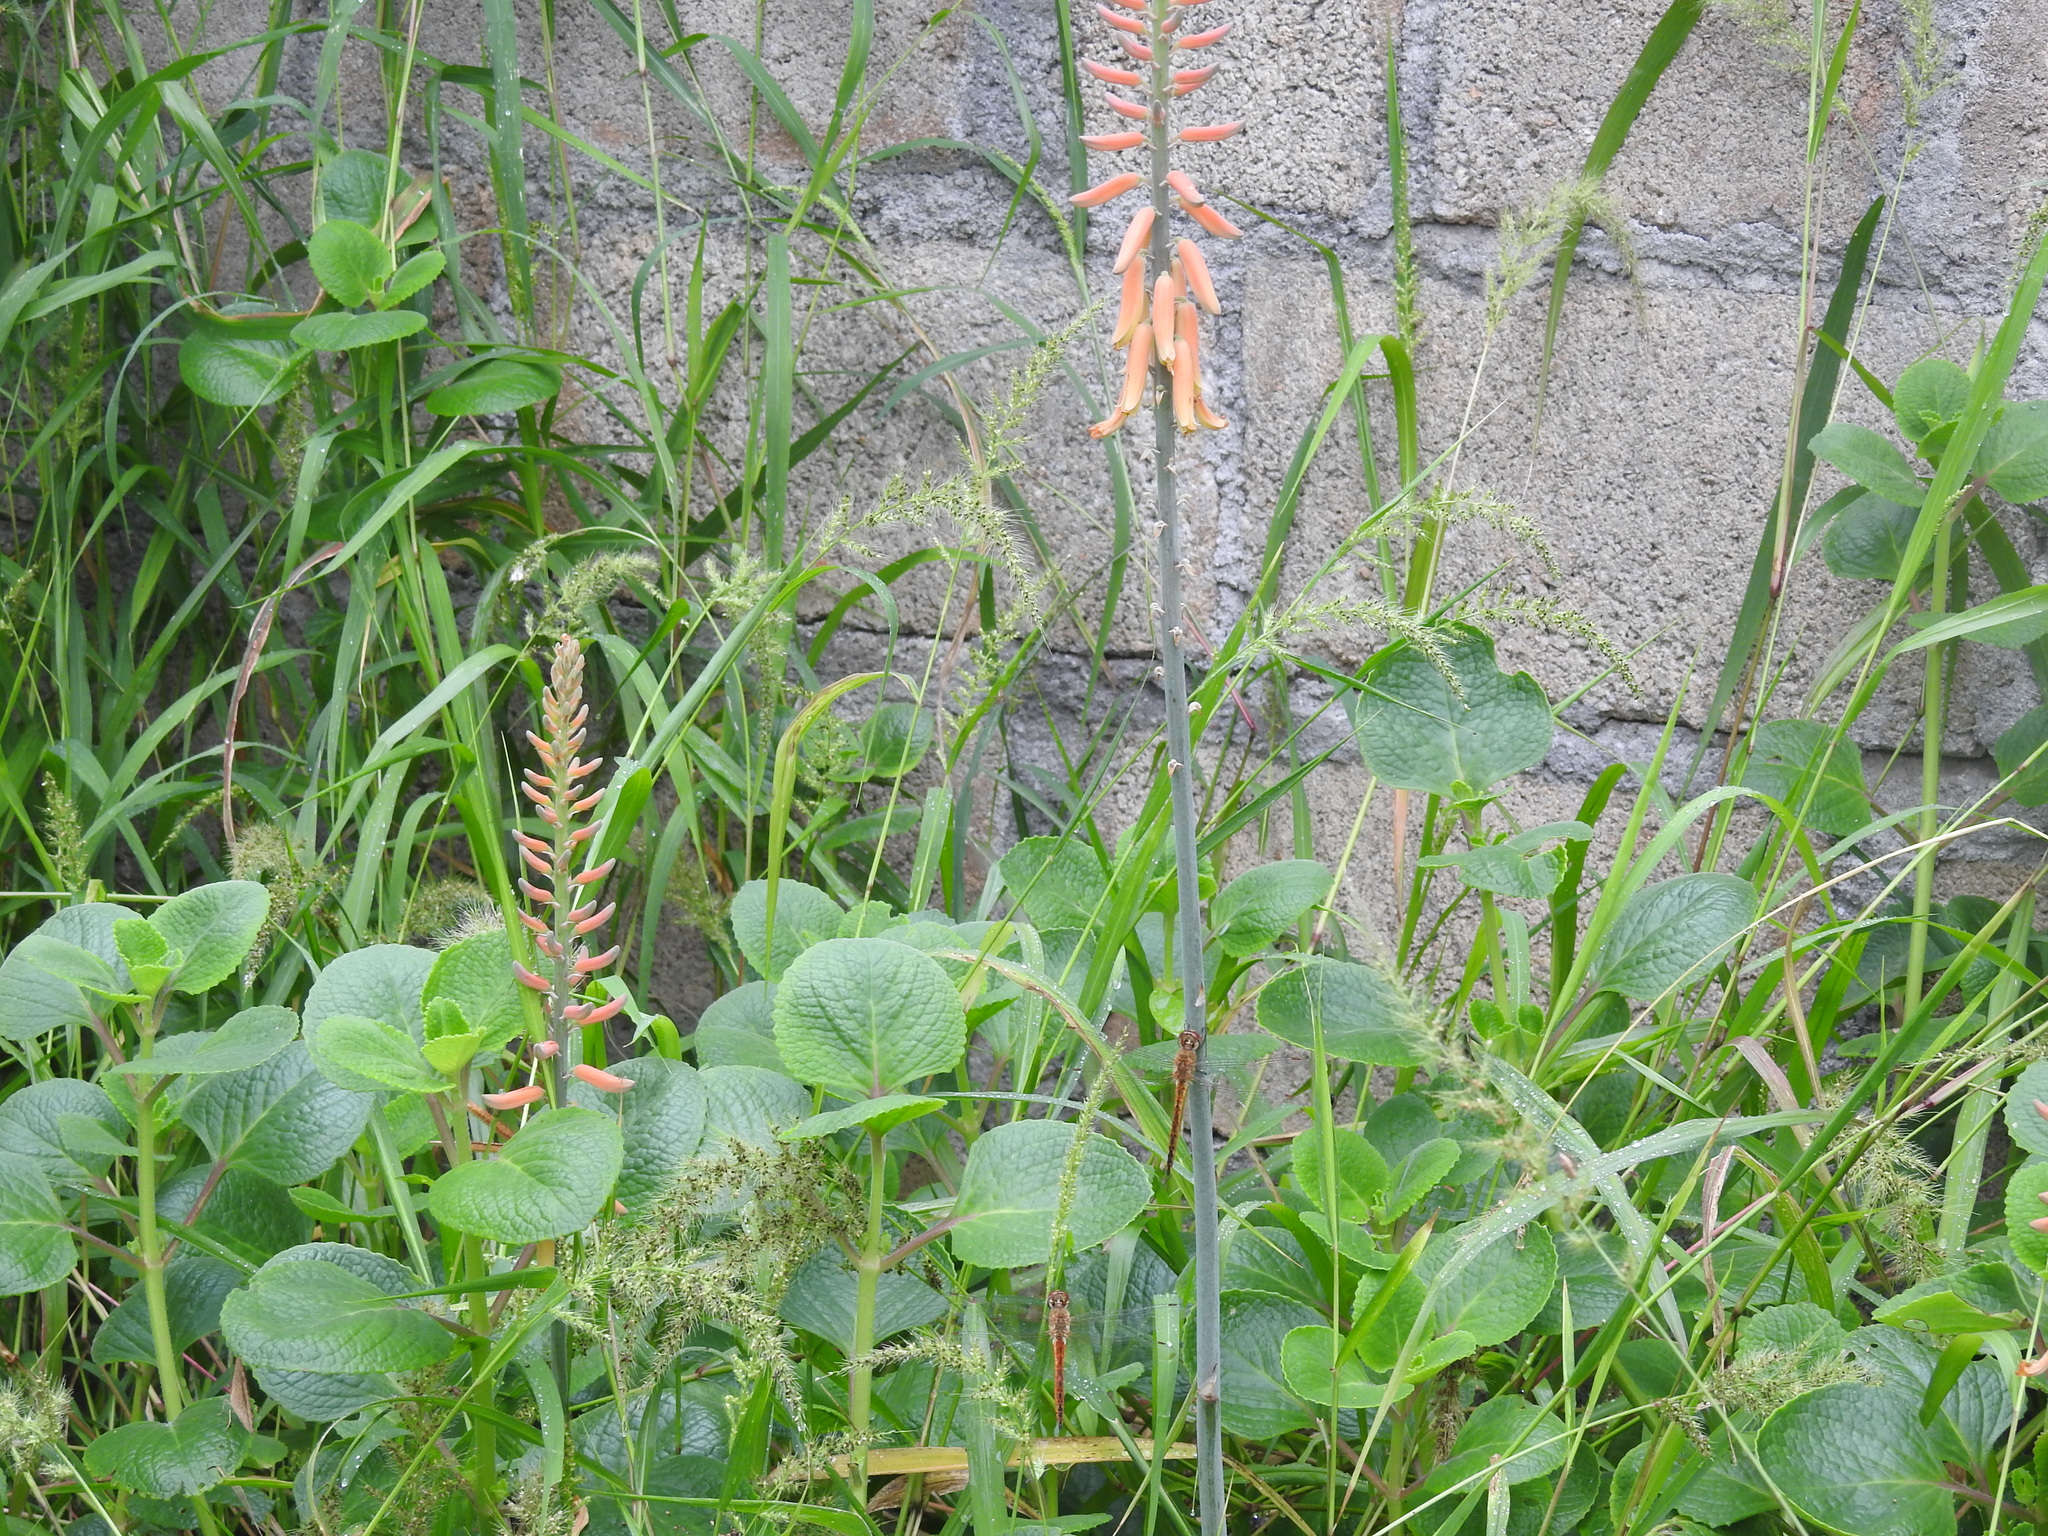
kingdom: Animalia
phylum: Arthropoda
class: Insecta
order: Odonata
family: Libellulidae
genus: Pantala
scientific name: Pantala flavescens
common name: Wandering glider
